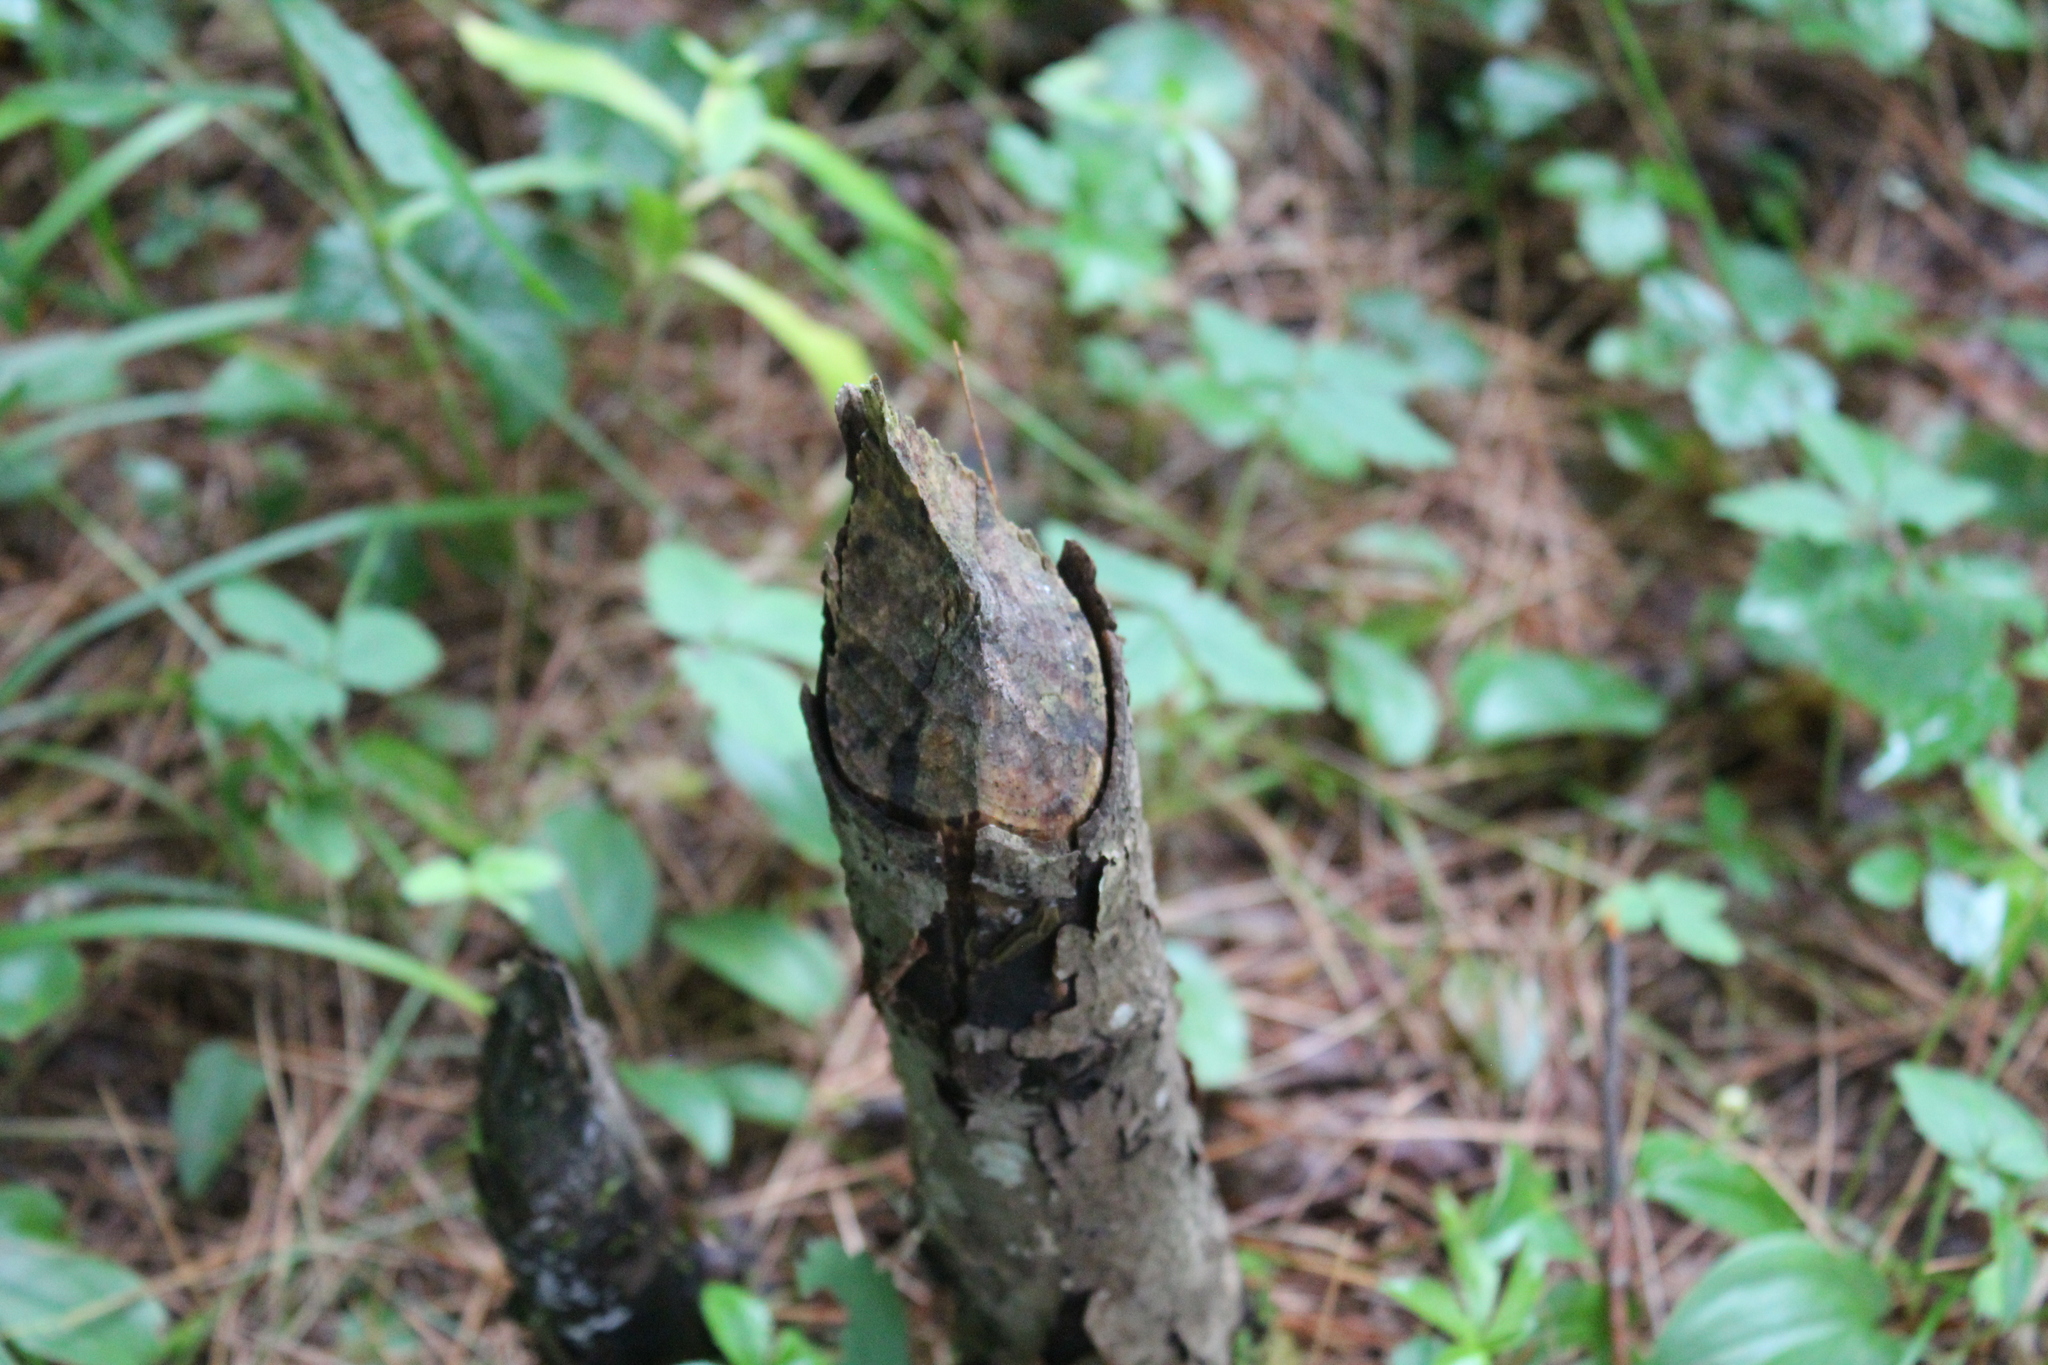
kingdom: Animalia
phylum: Chordata
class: Mammalia
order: Rodentia
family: Castoridae
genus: Castor
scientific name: Castor canadensis
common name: American beaver
